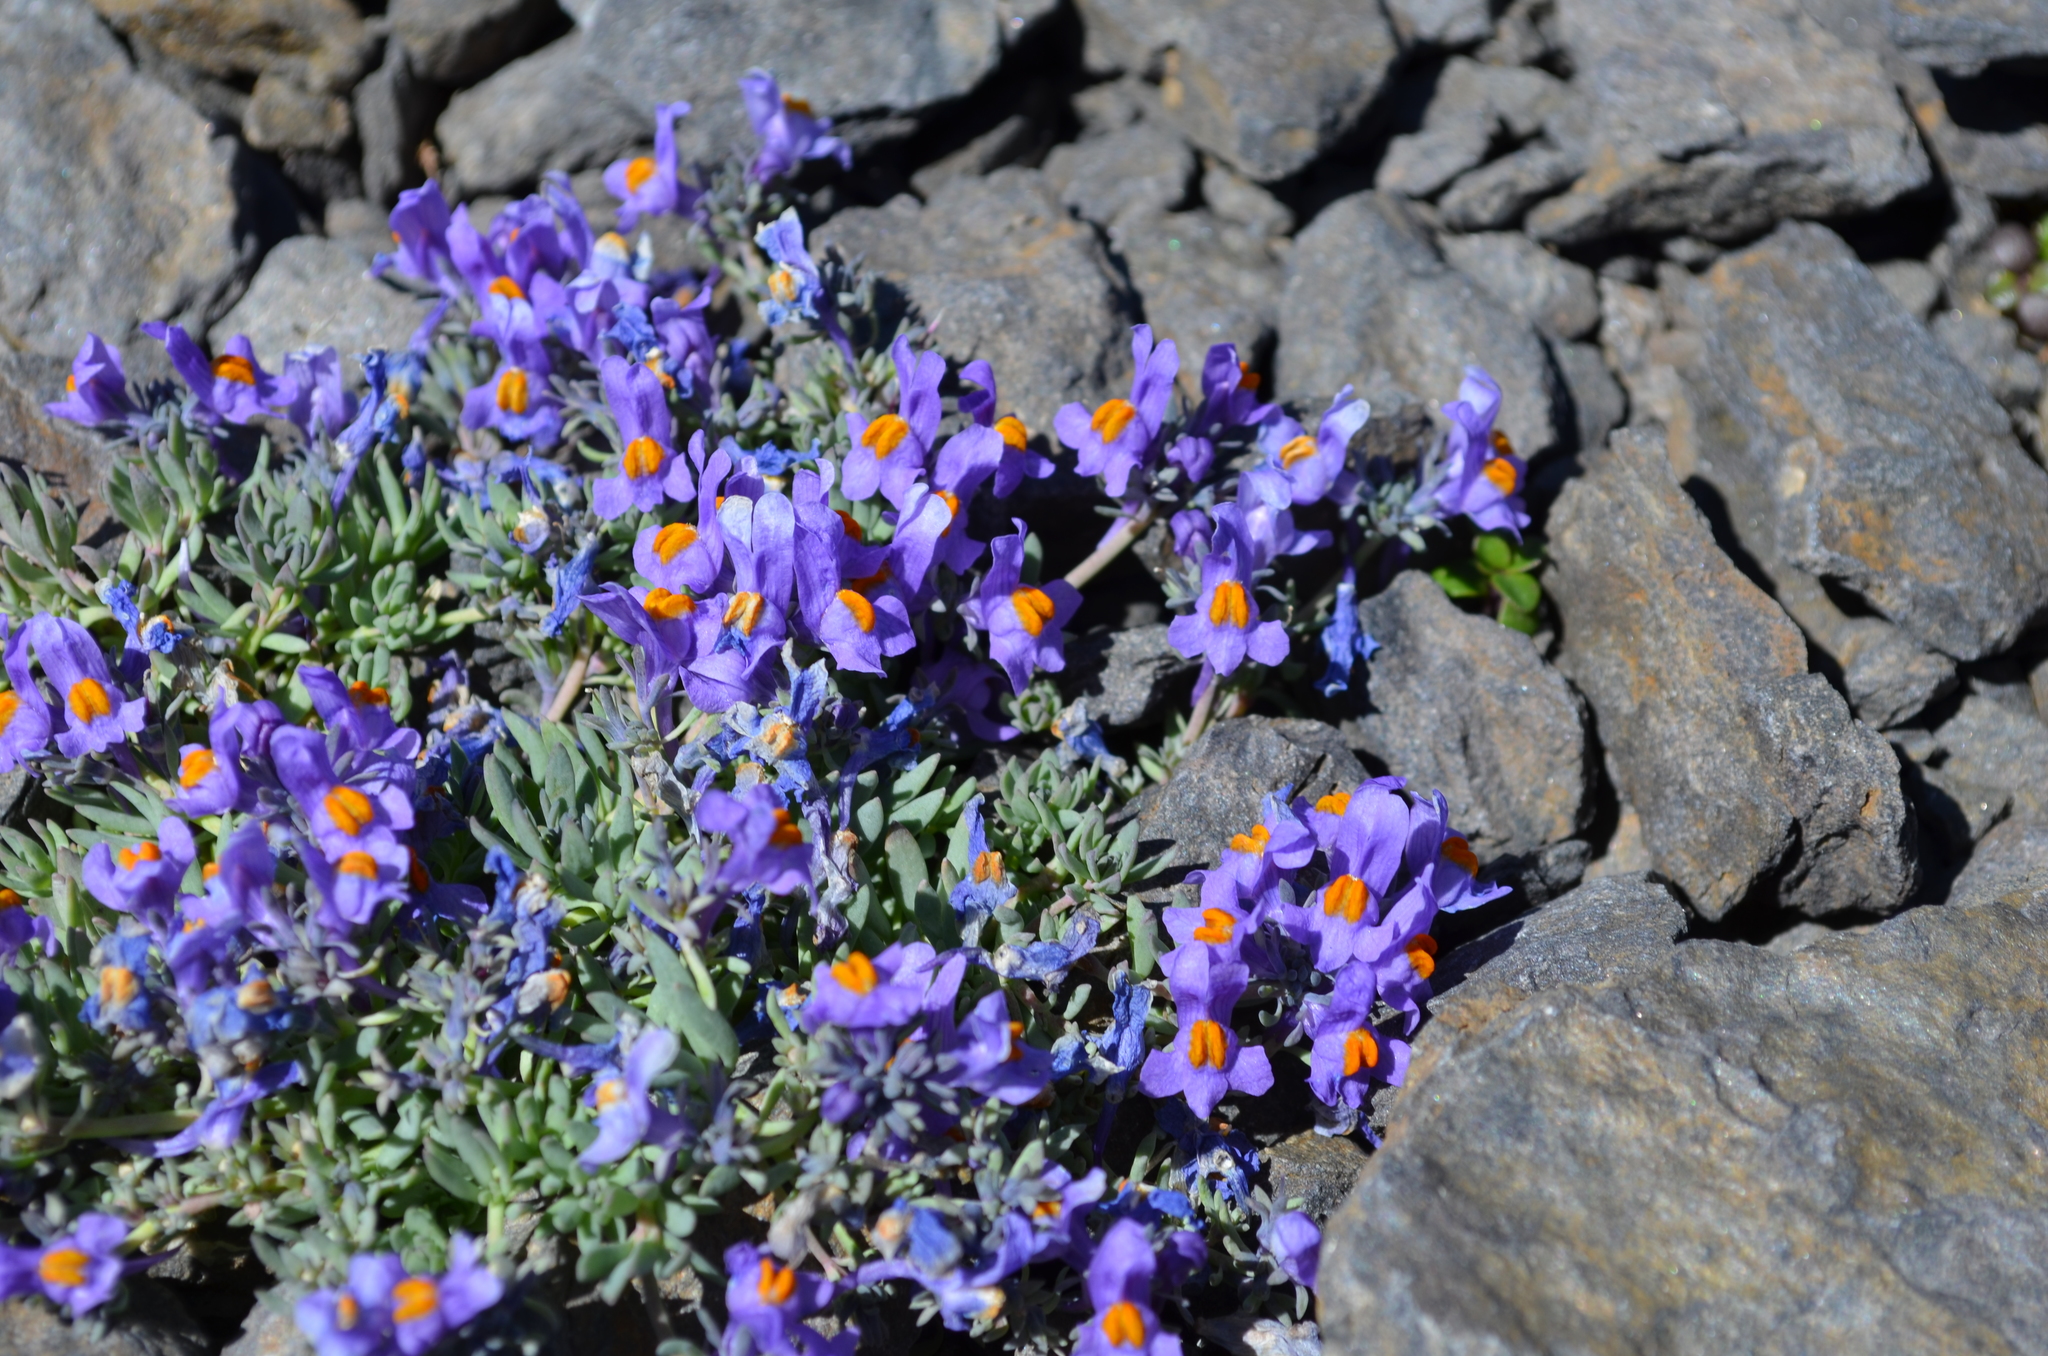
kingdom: Plantae
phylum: Tracheophyta
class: Magnoliopsida
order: Lamiales
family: Plantaginaceae
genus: Linaria
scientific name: Linaria alpina
